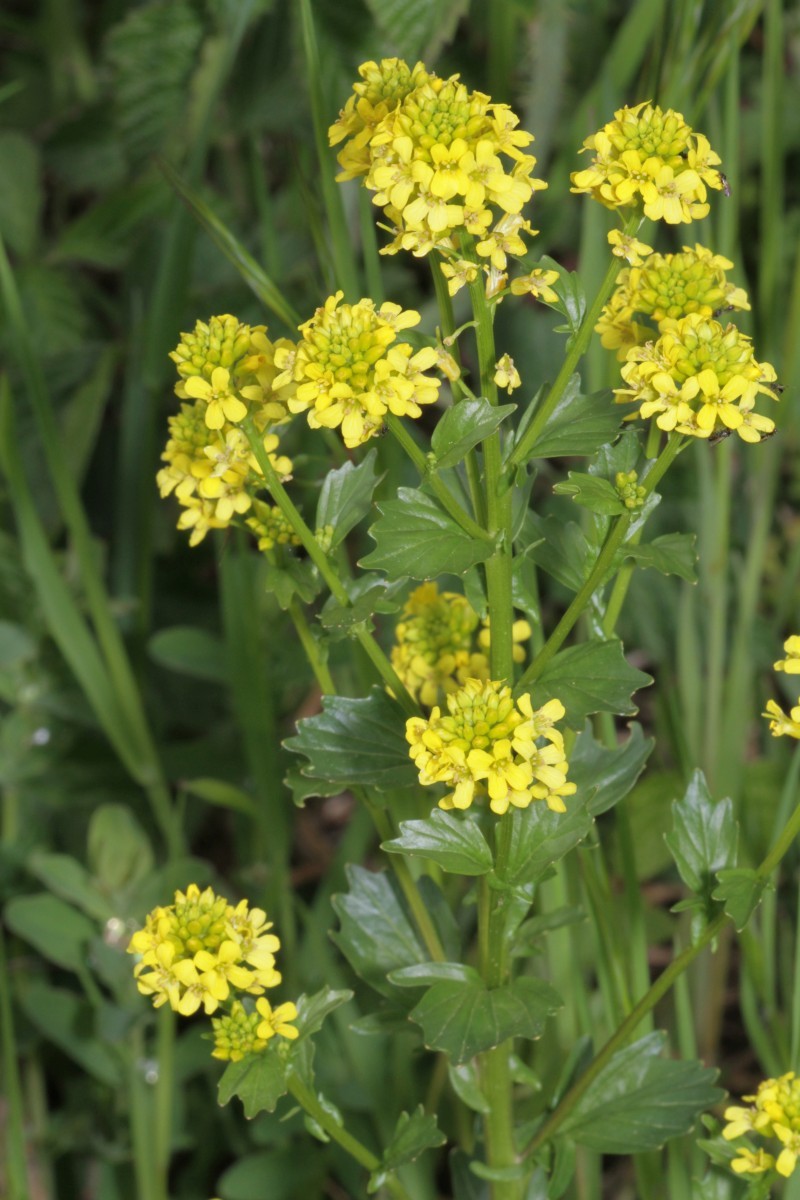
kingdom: Plantae
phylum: Tracheophyta
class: Magnoliopsida
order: Brassicales
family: Brassicaceae
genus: Barbarea
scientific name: Barbarea vulgaris
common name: Cressy-greens
